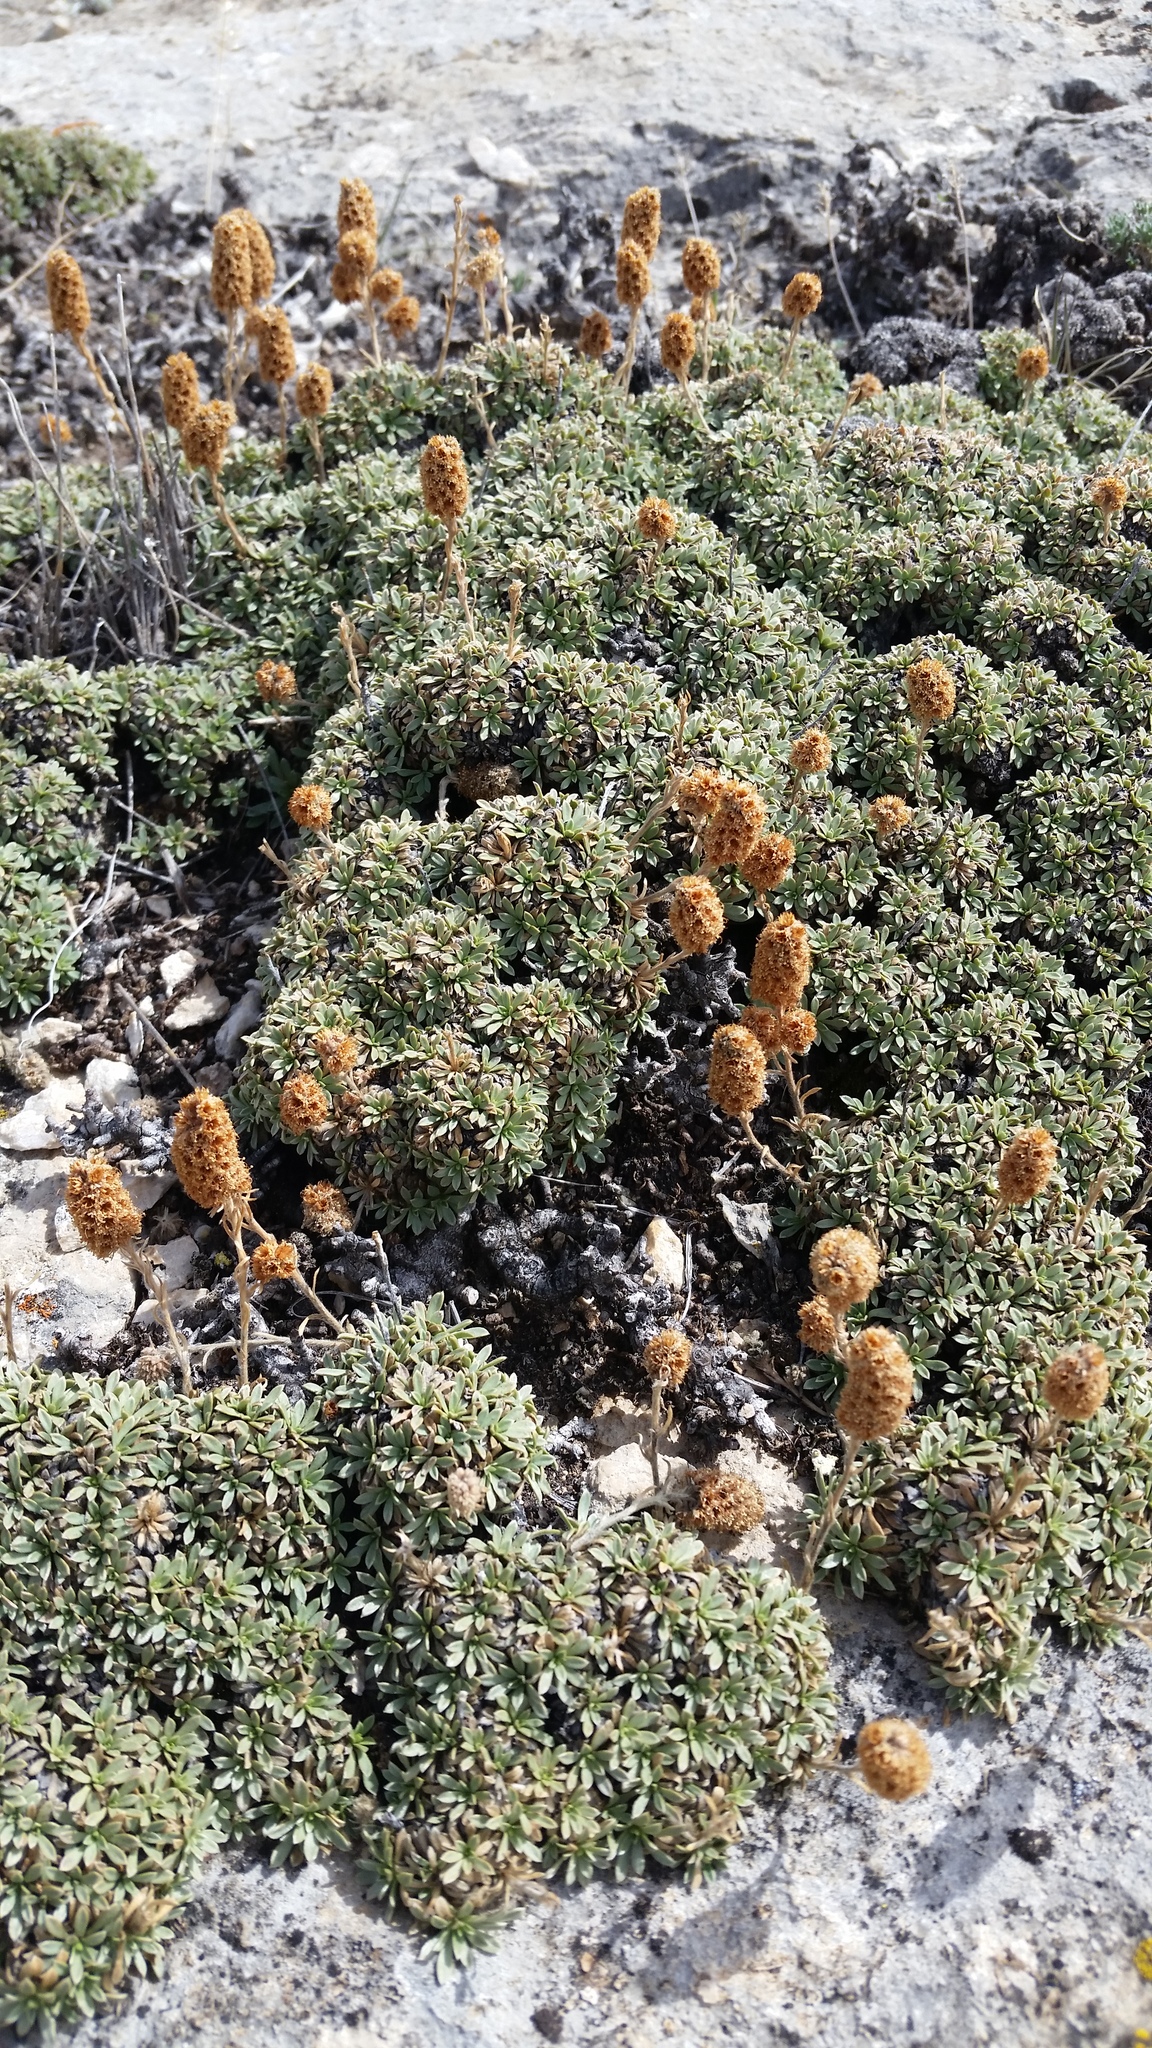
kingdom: Plantae
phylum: Tracheophyta
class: Magnoliopsida
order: Rosales
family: Rosaceae
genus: Petrophytum
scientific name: Petrophytum caespitosum
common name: Mat rockspirea
